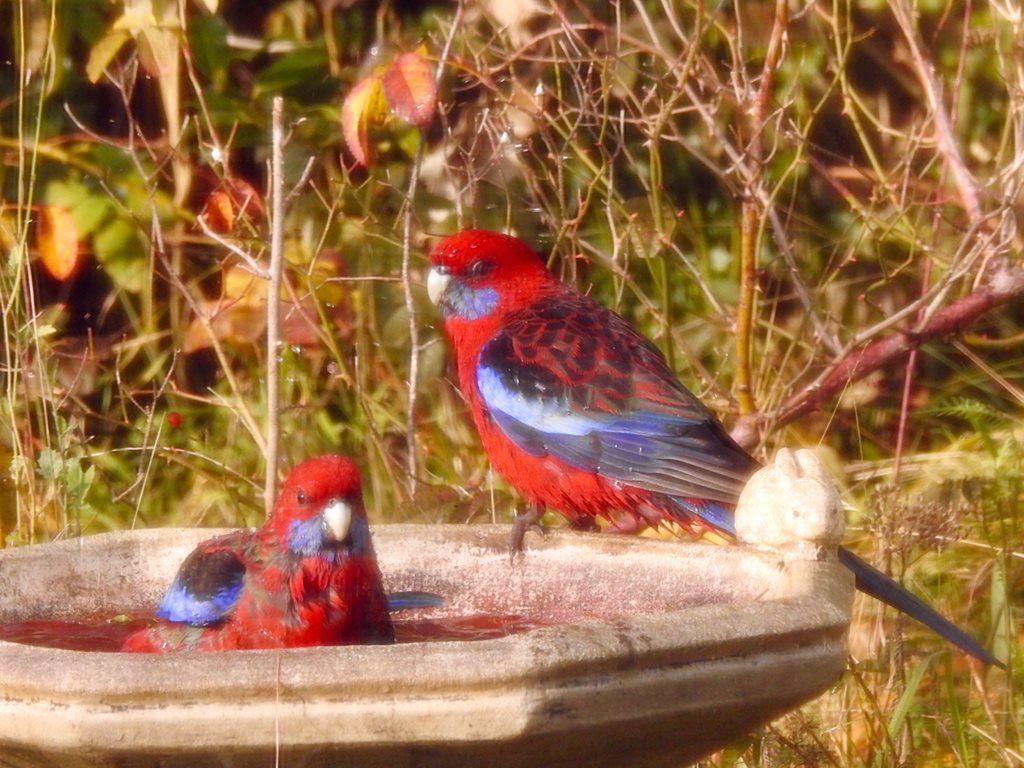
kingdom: Animalia
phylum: Chordata
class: Aves
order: Psittaciformes
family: Psittacidae
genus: Platycercus
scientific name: Platycercus elegans
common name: Crimson rosella
